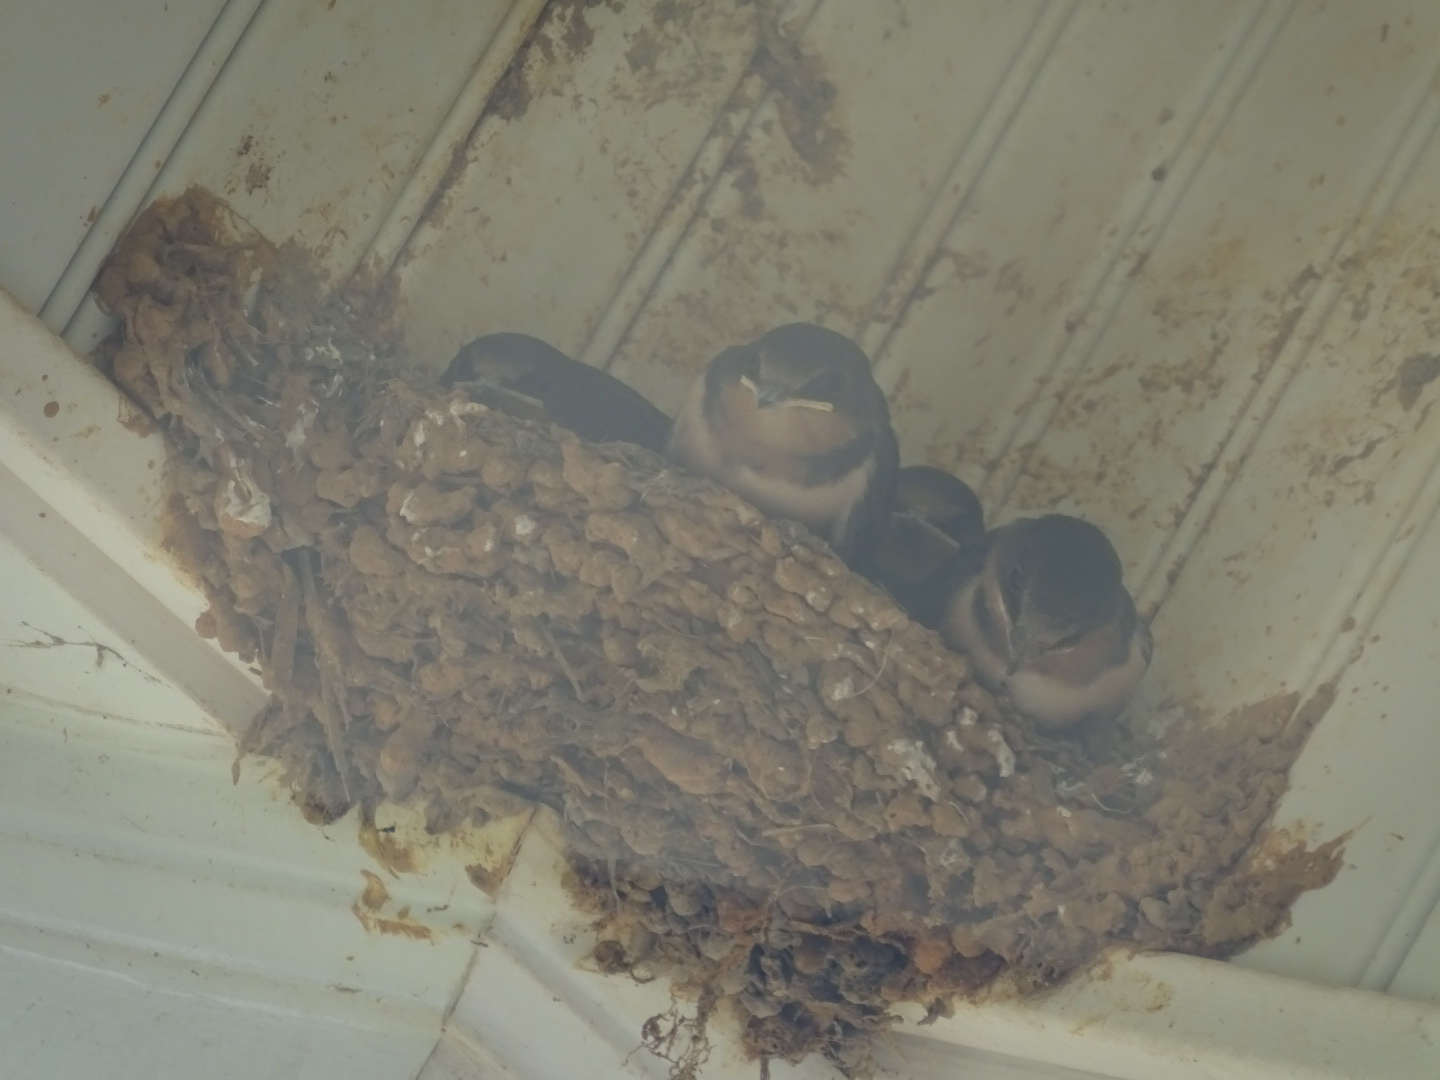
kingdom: Animalia
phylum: Chordata
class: Aves
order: Passeriformes
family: Hirundinidae
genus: Hirundo
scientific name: Hirundo rustica
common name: Barn swallow
